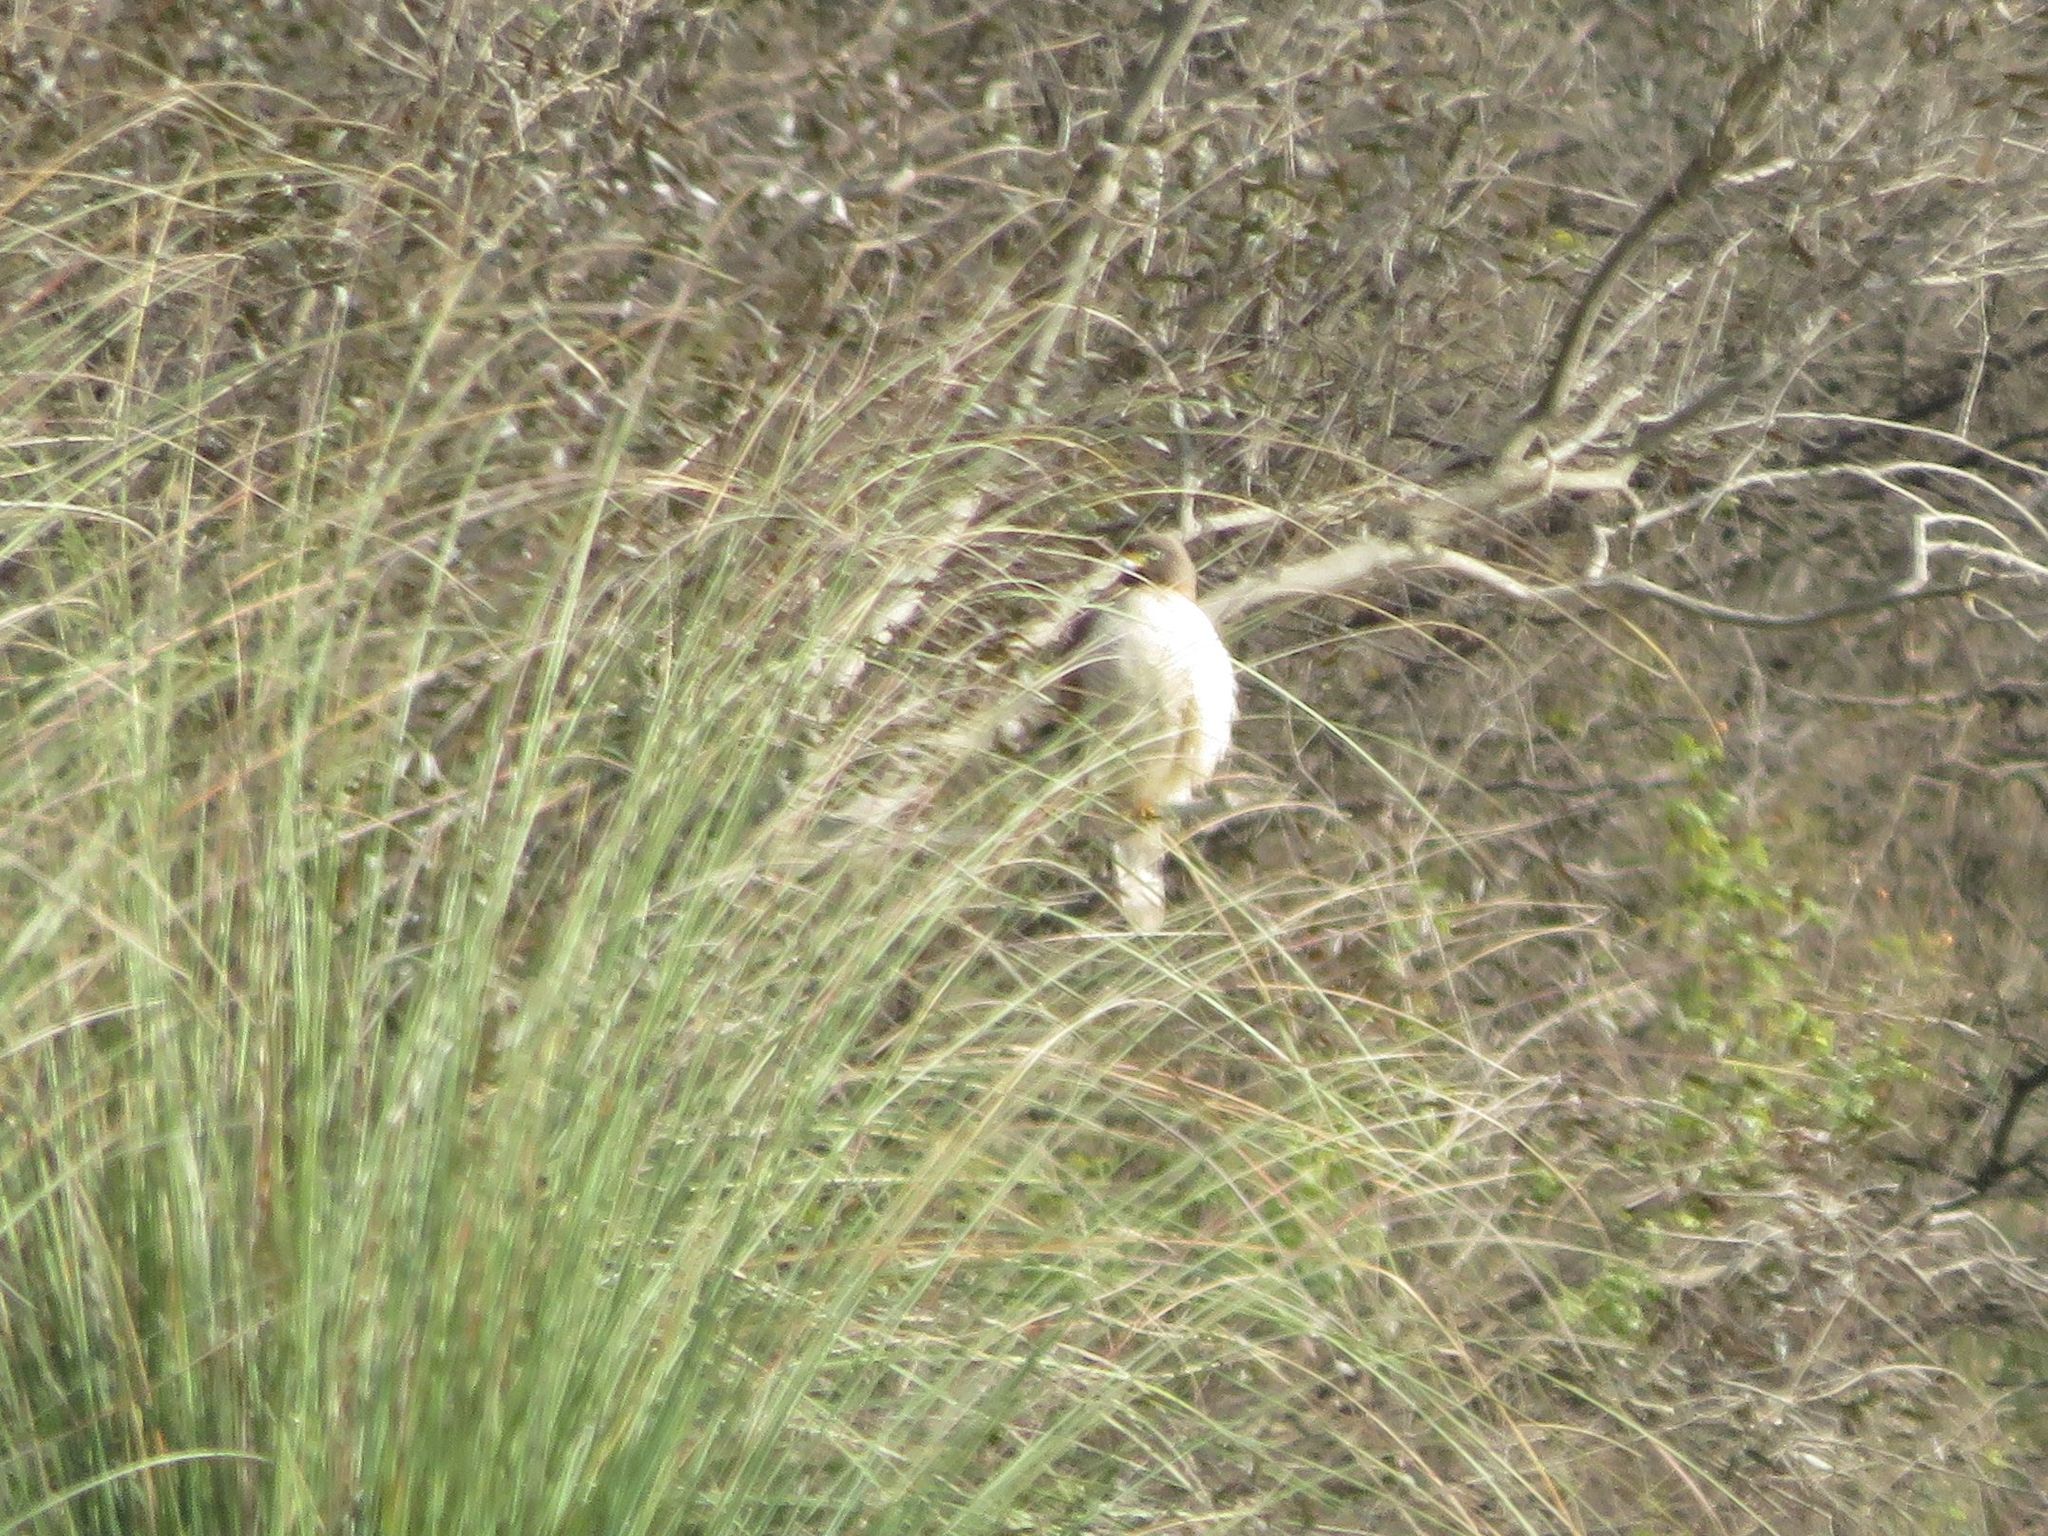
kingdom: Animalia
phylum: Chordata
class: Aves
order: Accipitriformes
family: Accipitridae
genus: Rupornis
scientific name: Rupornis magnirostris
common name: Roadside hawk
